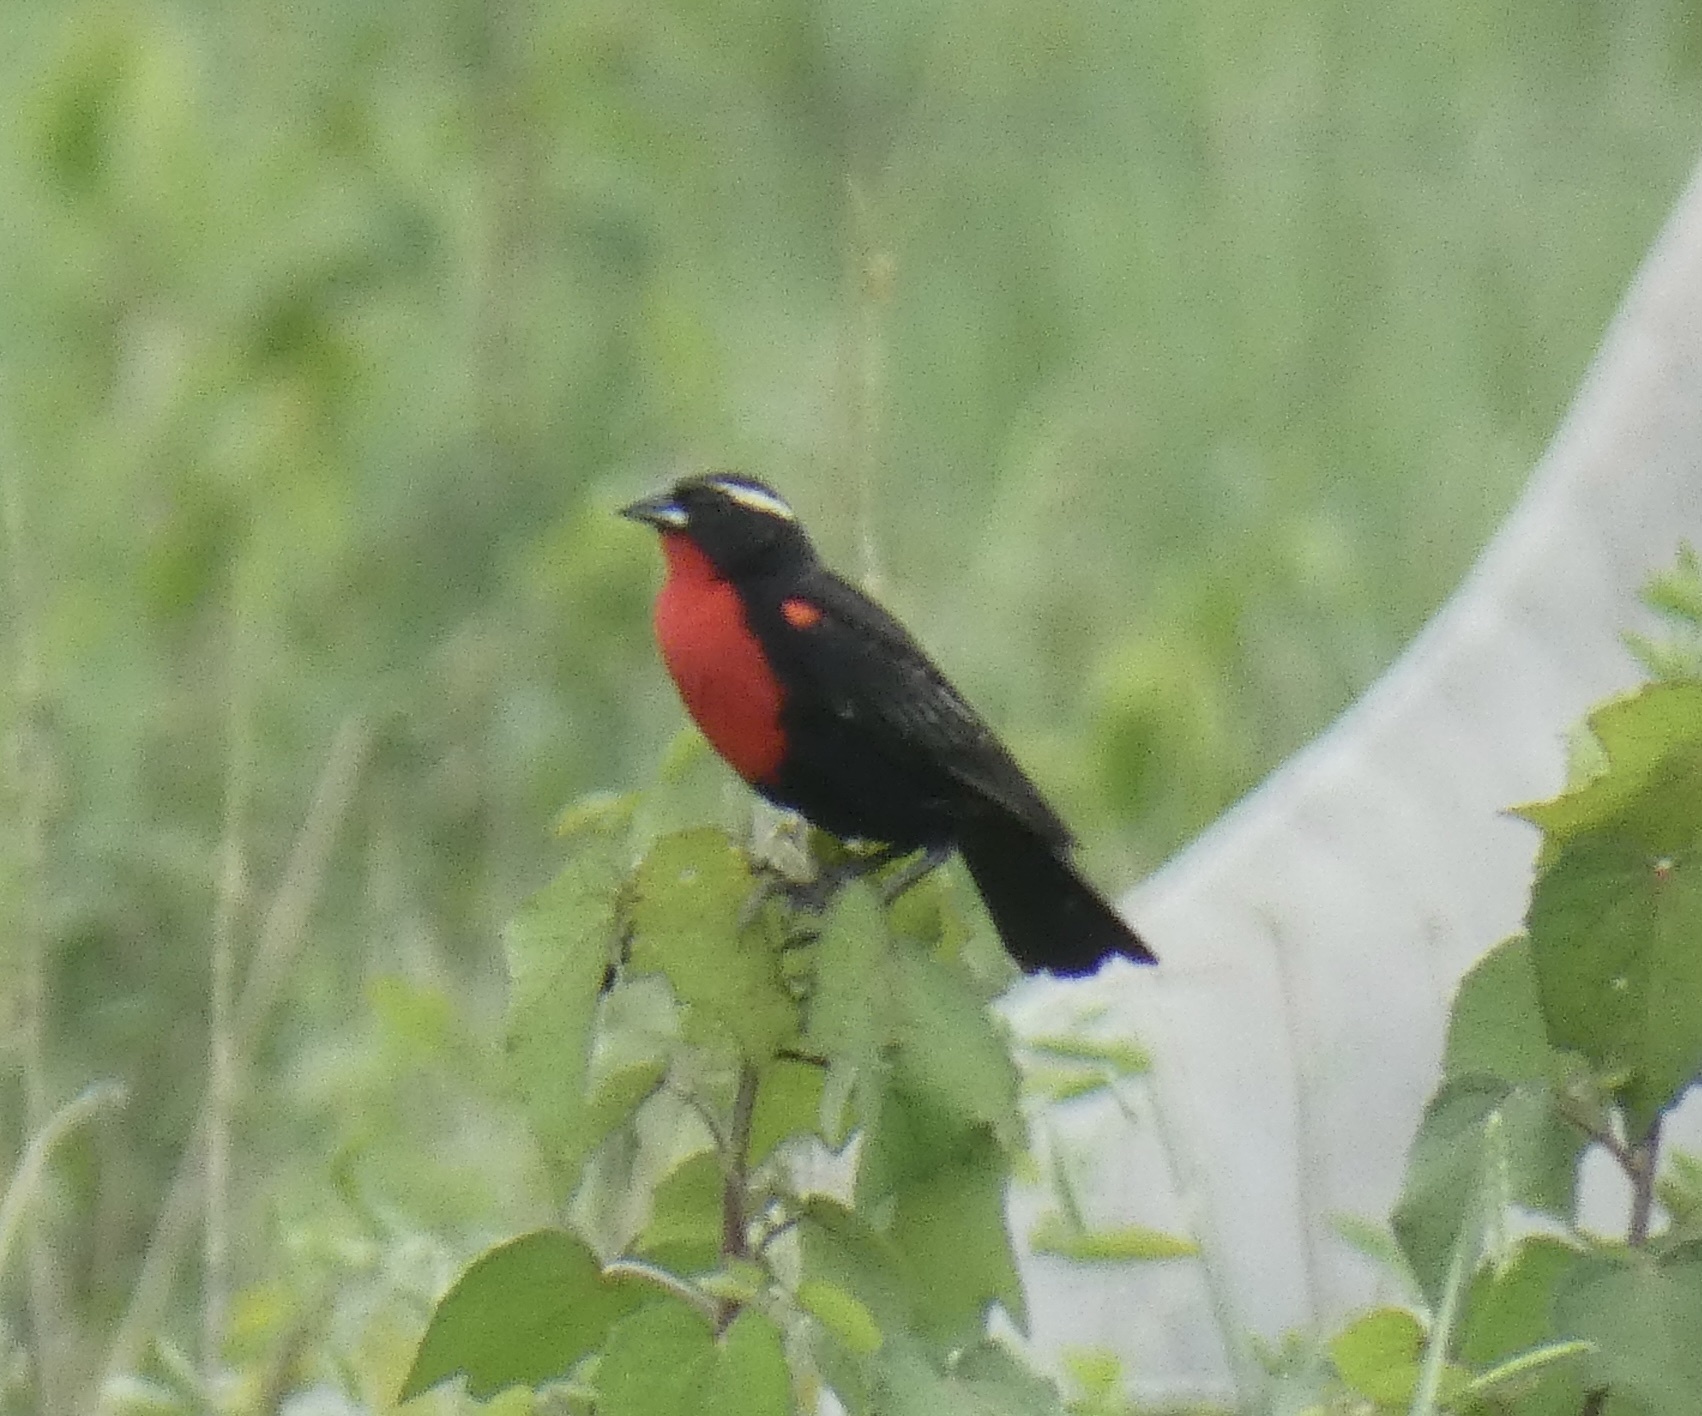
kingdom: Animalia
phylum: Chordata
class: Aves
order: Passeriformes
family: Icteridae
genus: Sturnella
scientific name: Sturnella superciliaris
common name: White-browed blackbird
